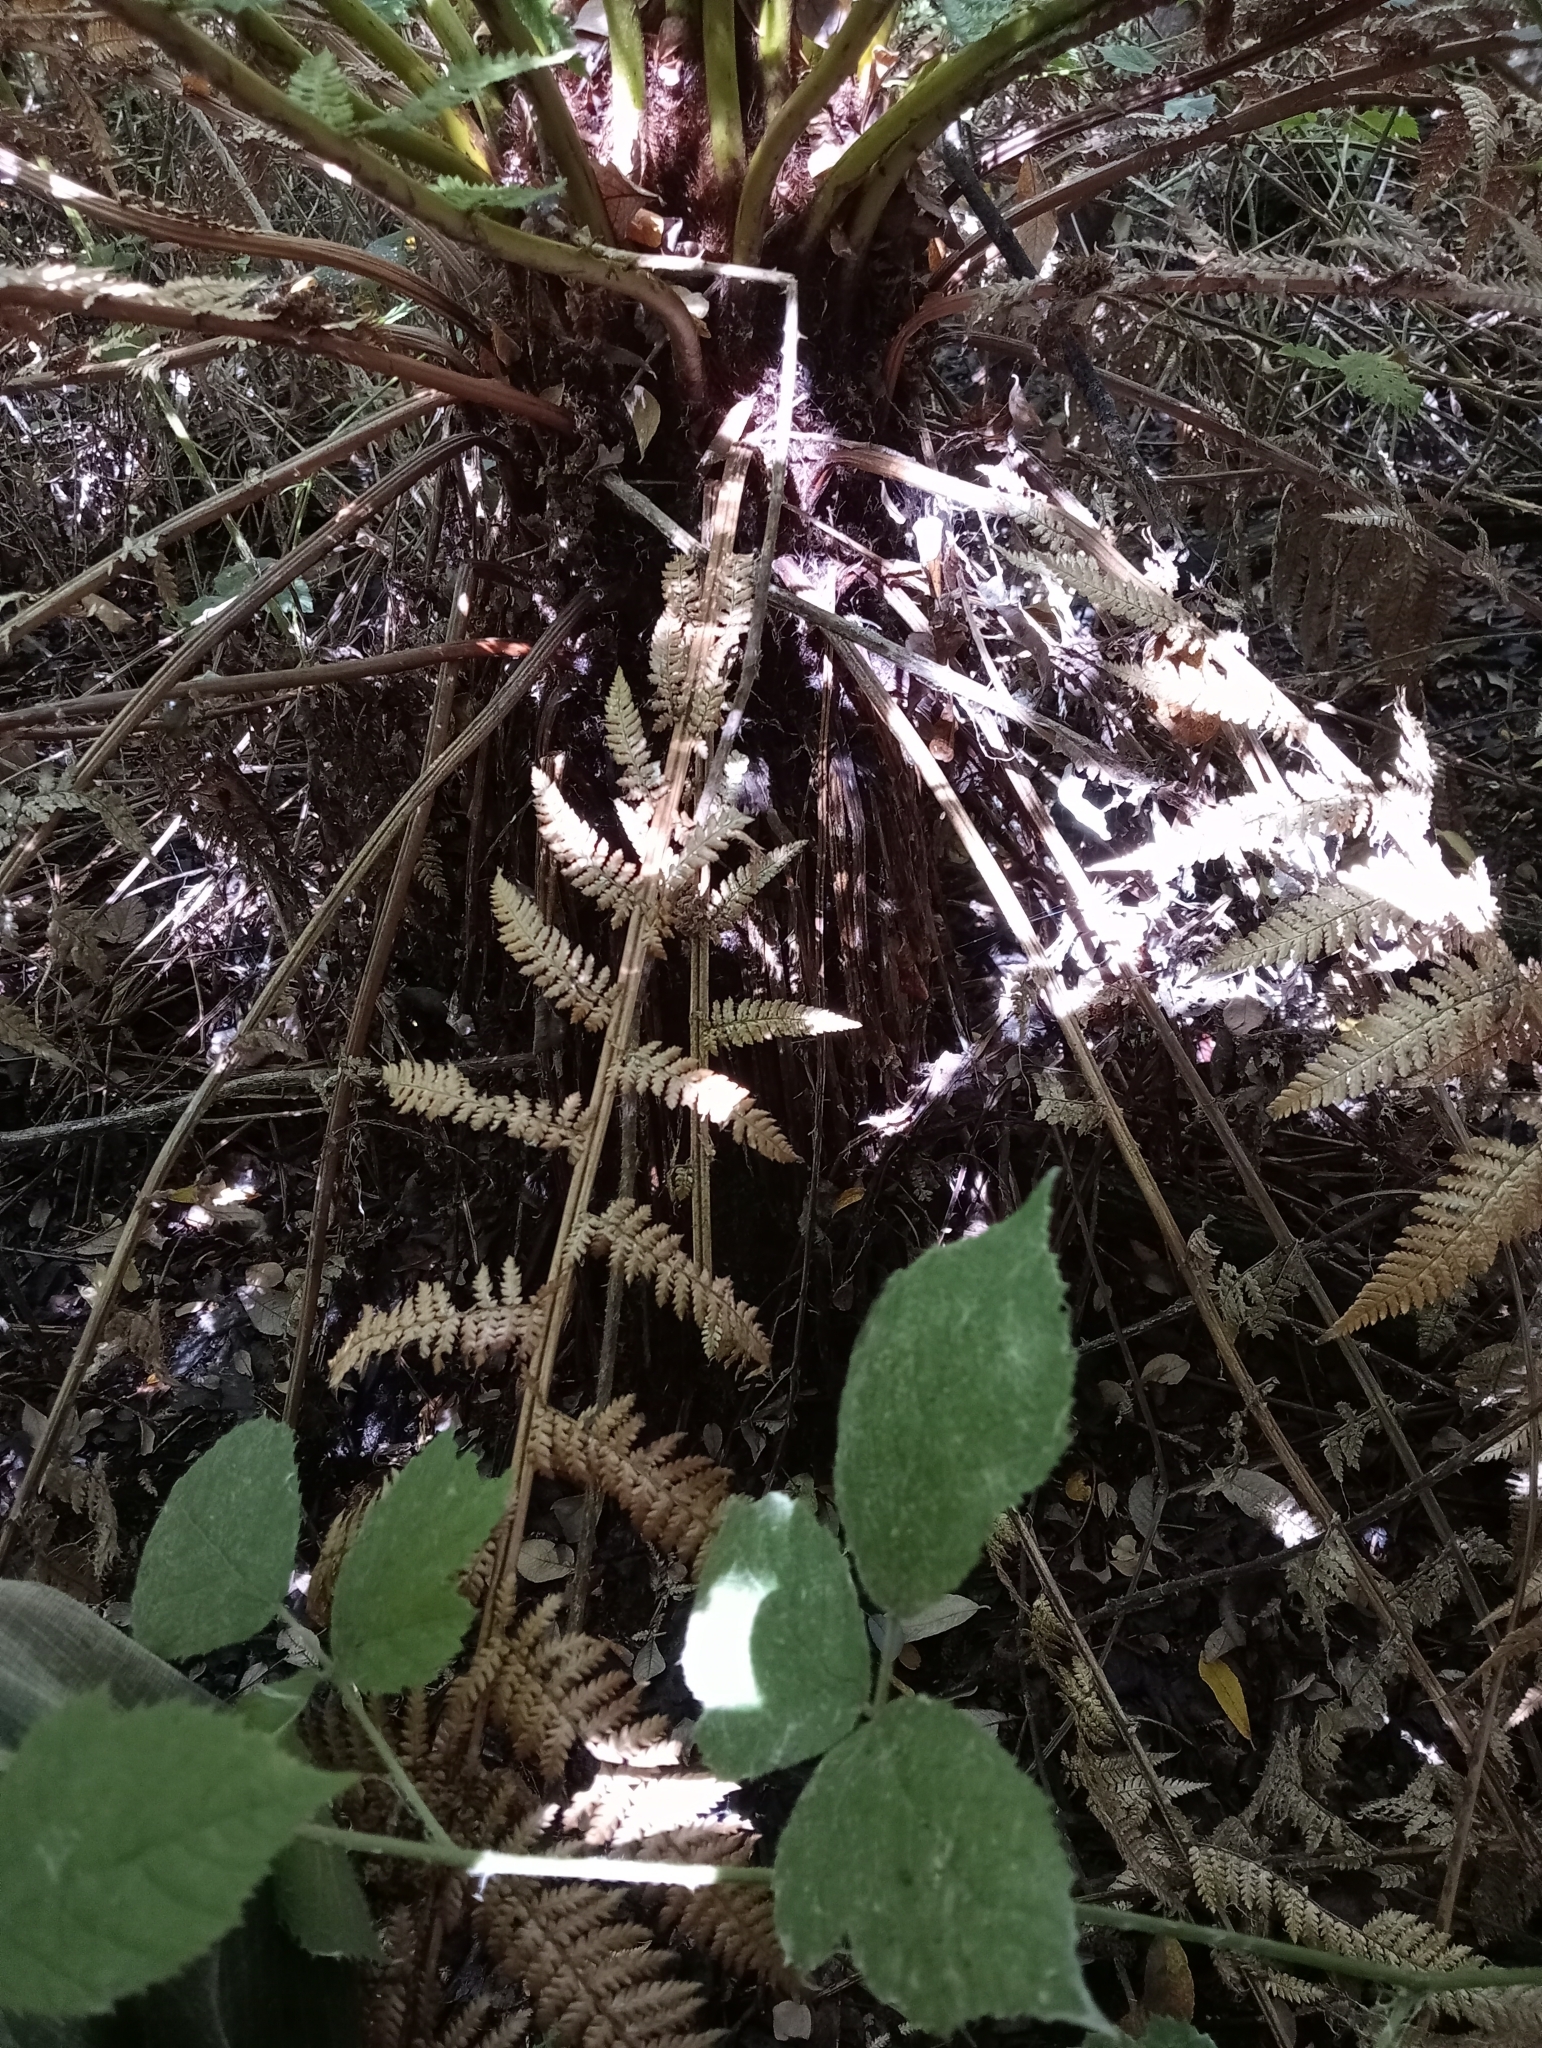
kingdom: Plantae
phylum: Tracheophyta
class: Polypodiopsida
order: Cyatheales
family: Dicksoniaceae
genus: Dicksonia
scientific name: Dicksonia fibrosa
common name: Golden tree fern
